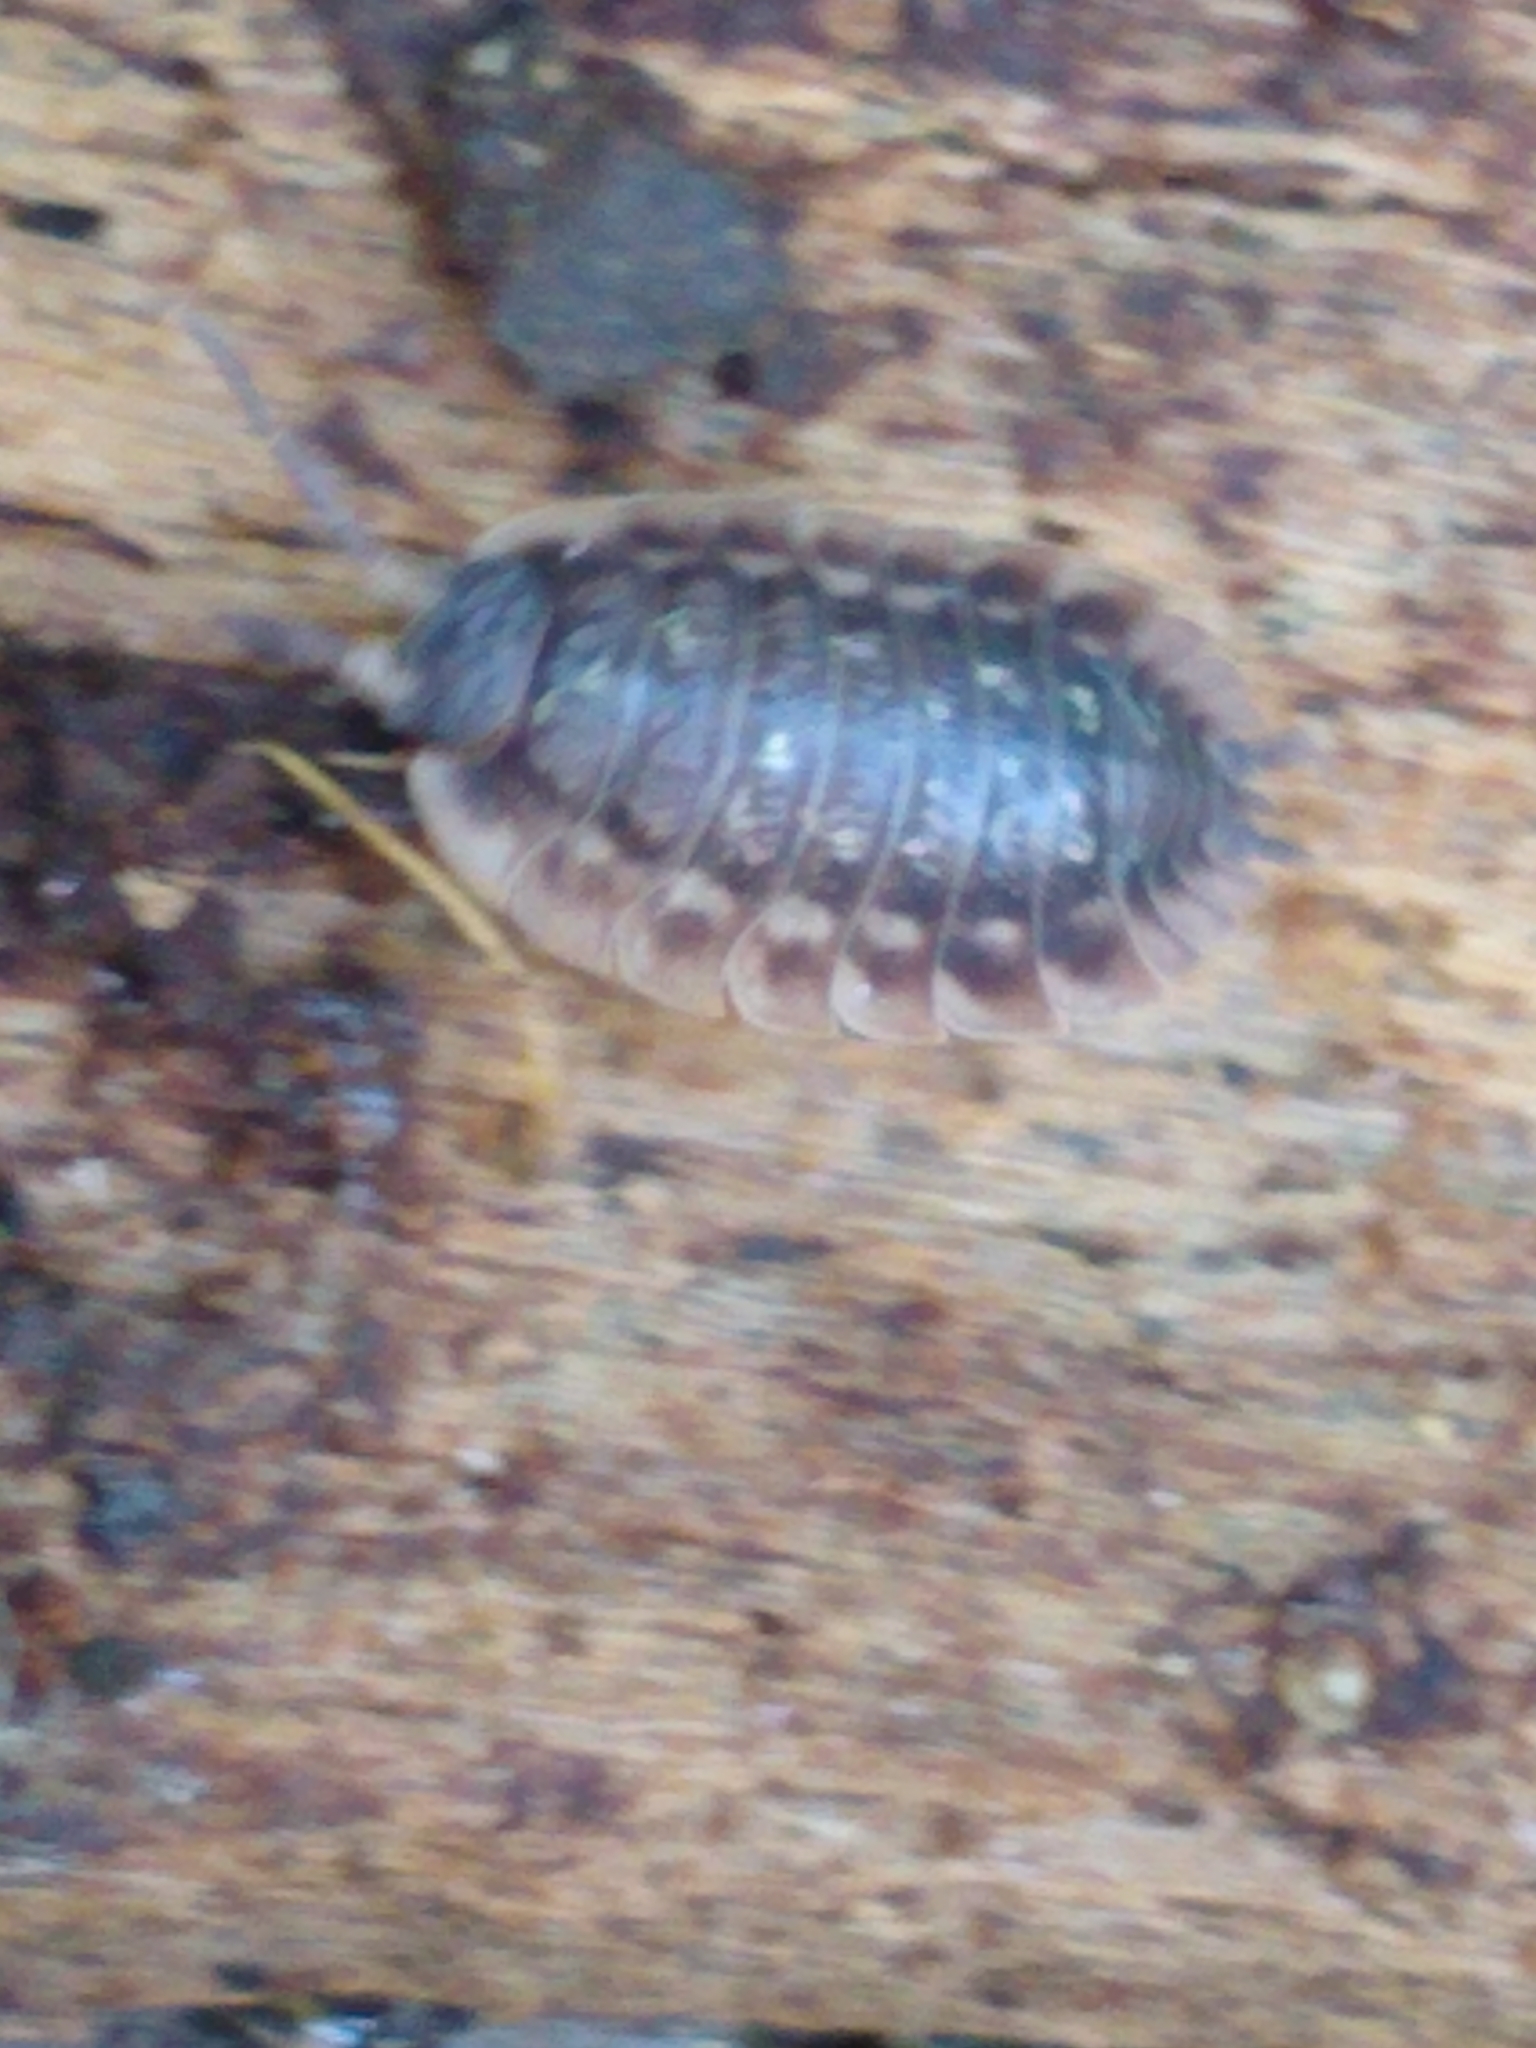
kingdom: Animalia
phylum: Arthropoda
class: Malacostraca
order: Isopoda
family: Oniscidae
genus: Oniscus
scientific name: Oniscus asellus
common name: Common shiny woodlouse
